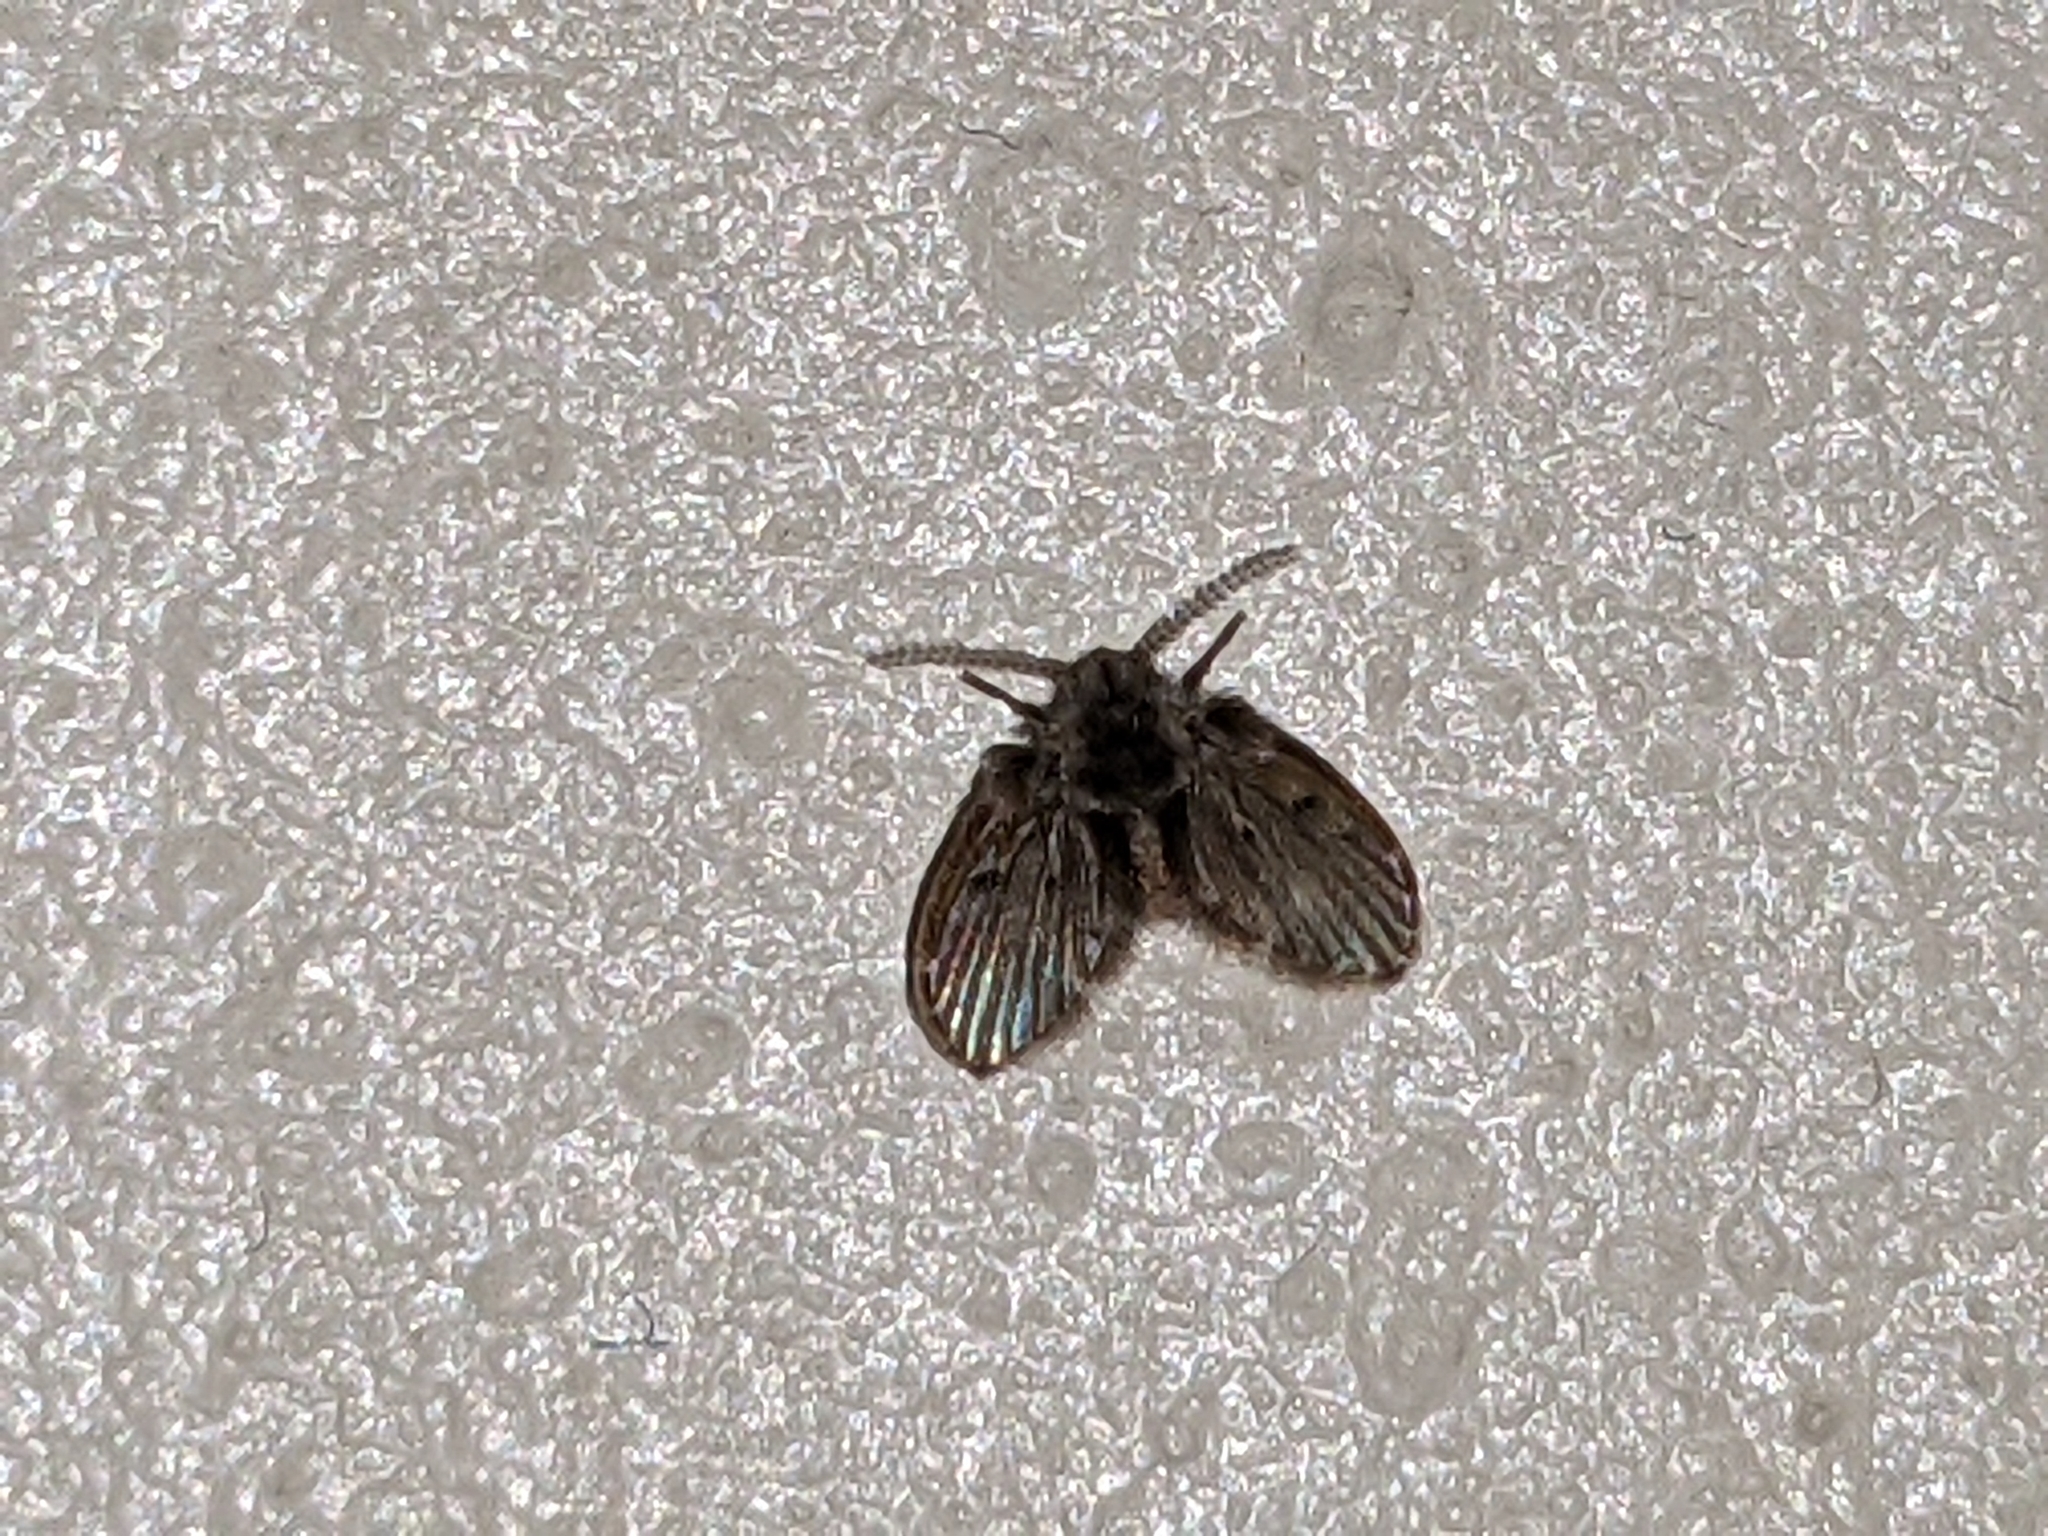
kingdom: Animalia
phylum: Arthropoda
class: Insecta
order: Diptera
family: Psychodidae
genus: Clogmia
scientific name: Clogmia albipunctatus
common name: White-spotted moth fly
